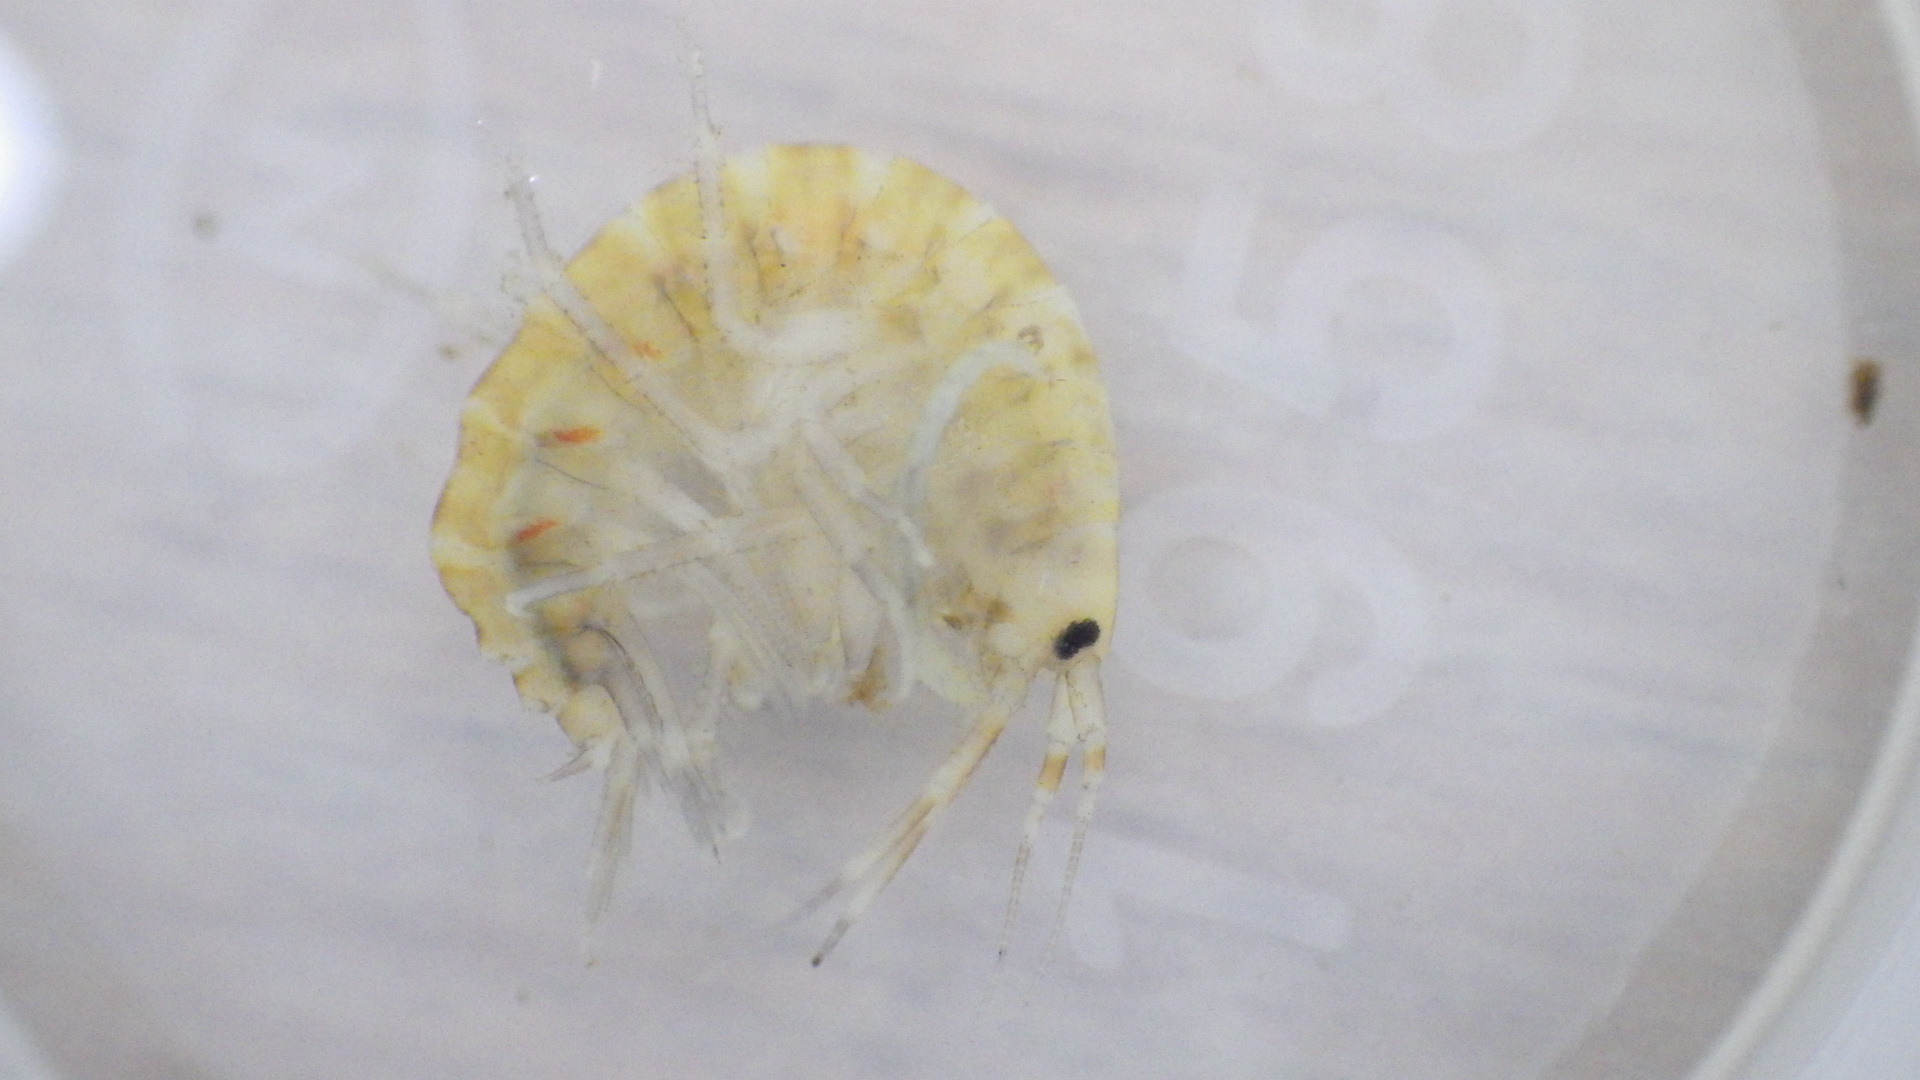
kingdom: Animalia
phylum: Arthropoda
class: Malacostraca
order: Amphipoda
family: Gammaridae
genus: Gammarus
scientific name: Gammarus fasciatus
